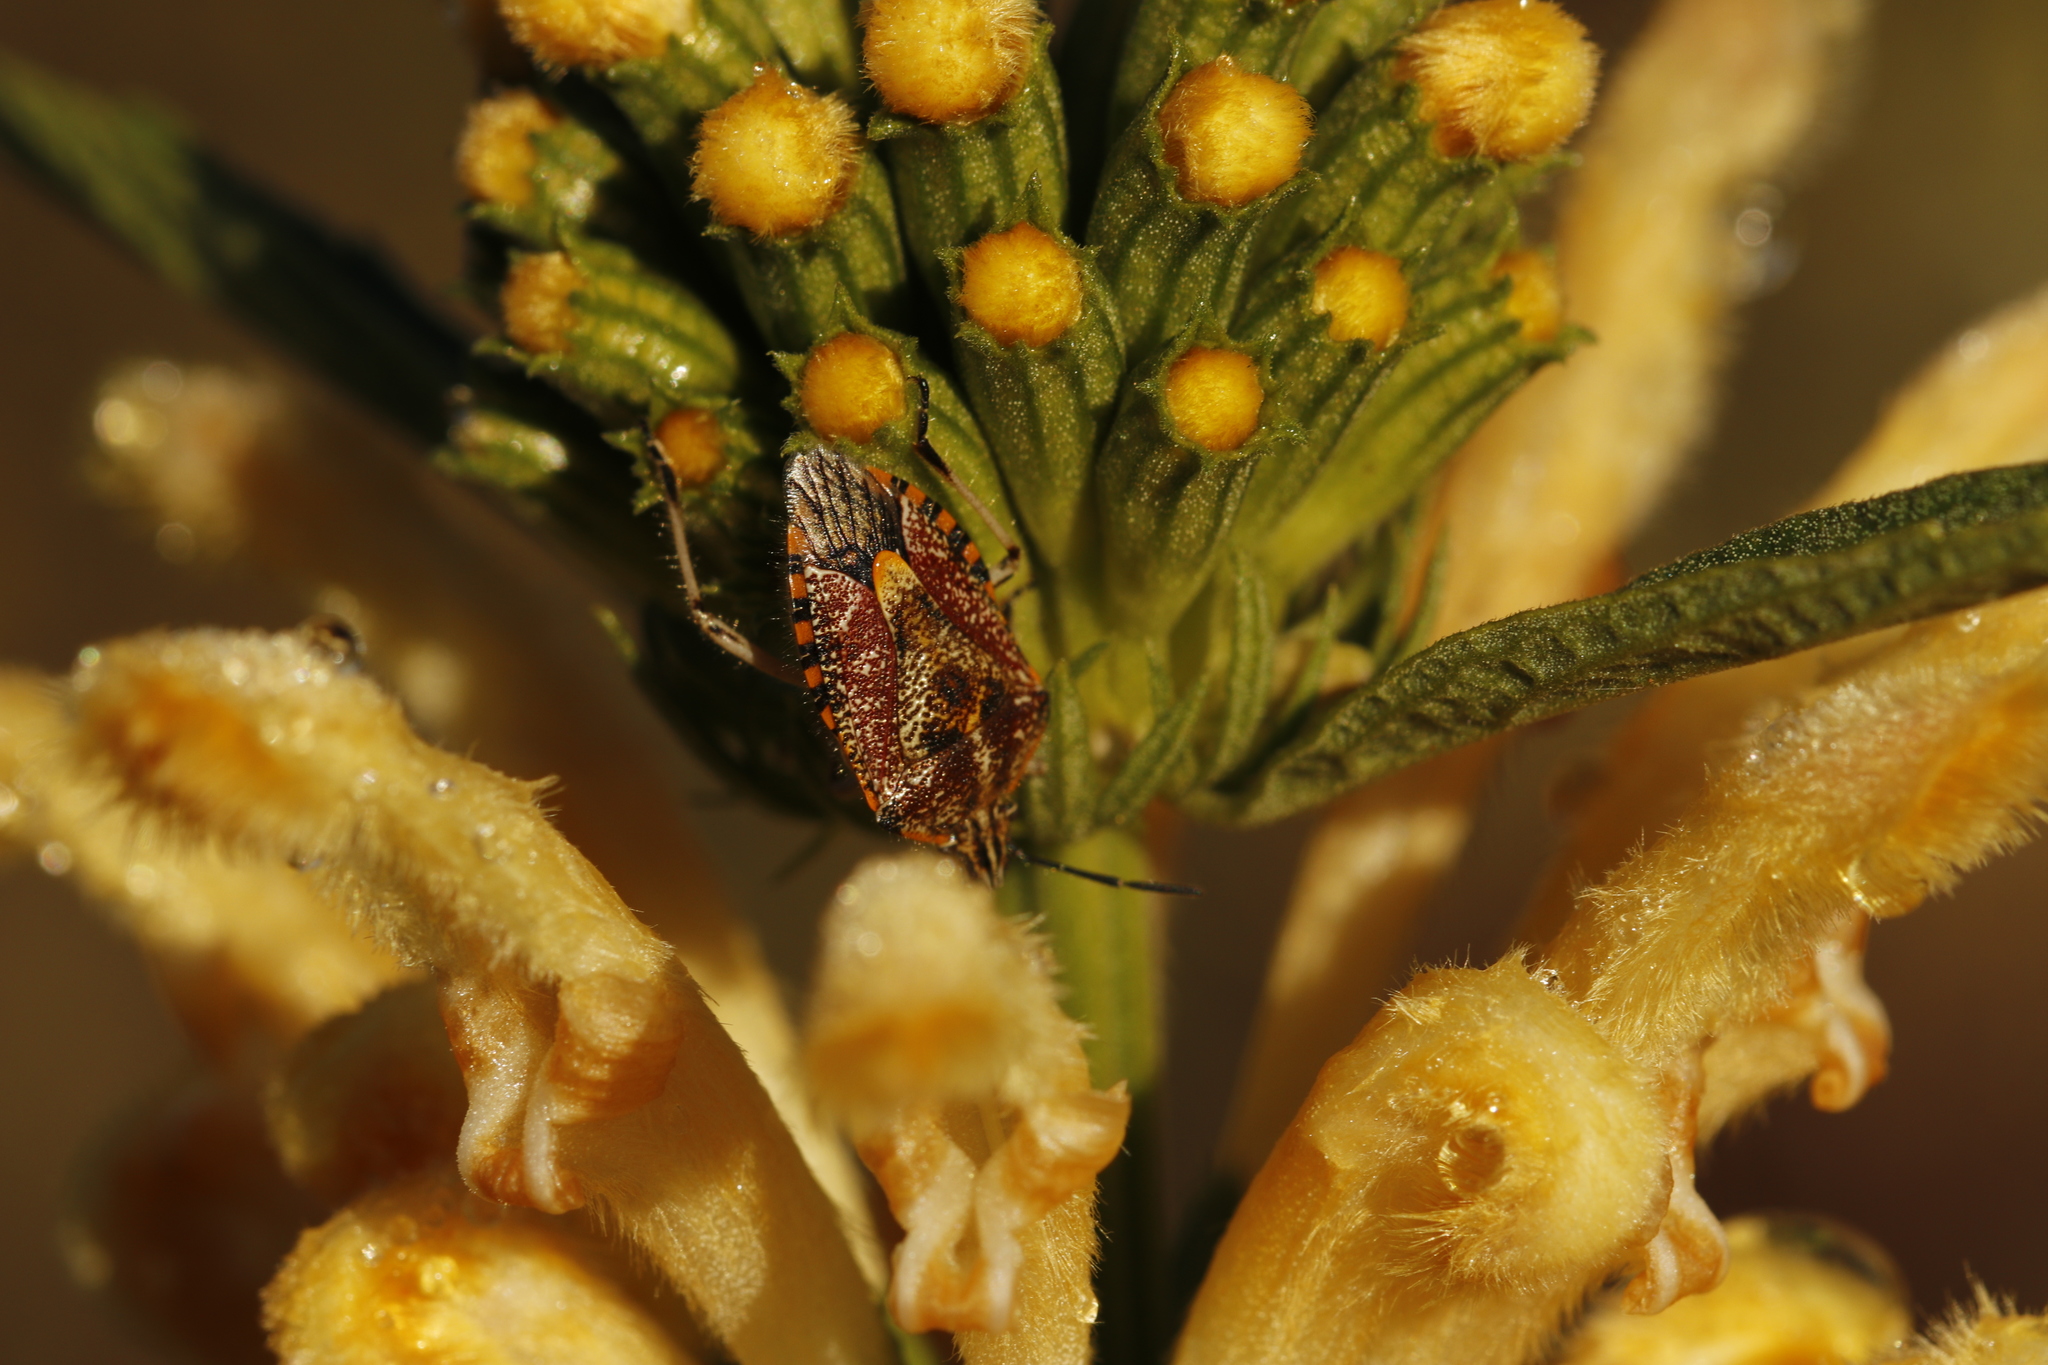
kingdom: Animalia
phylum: Arthropoda
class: Insecta
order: Hemiptera
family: Pentatomidae
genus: Agonoscelis
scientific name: Agonoscelis versicoloratus
